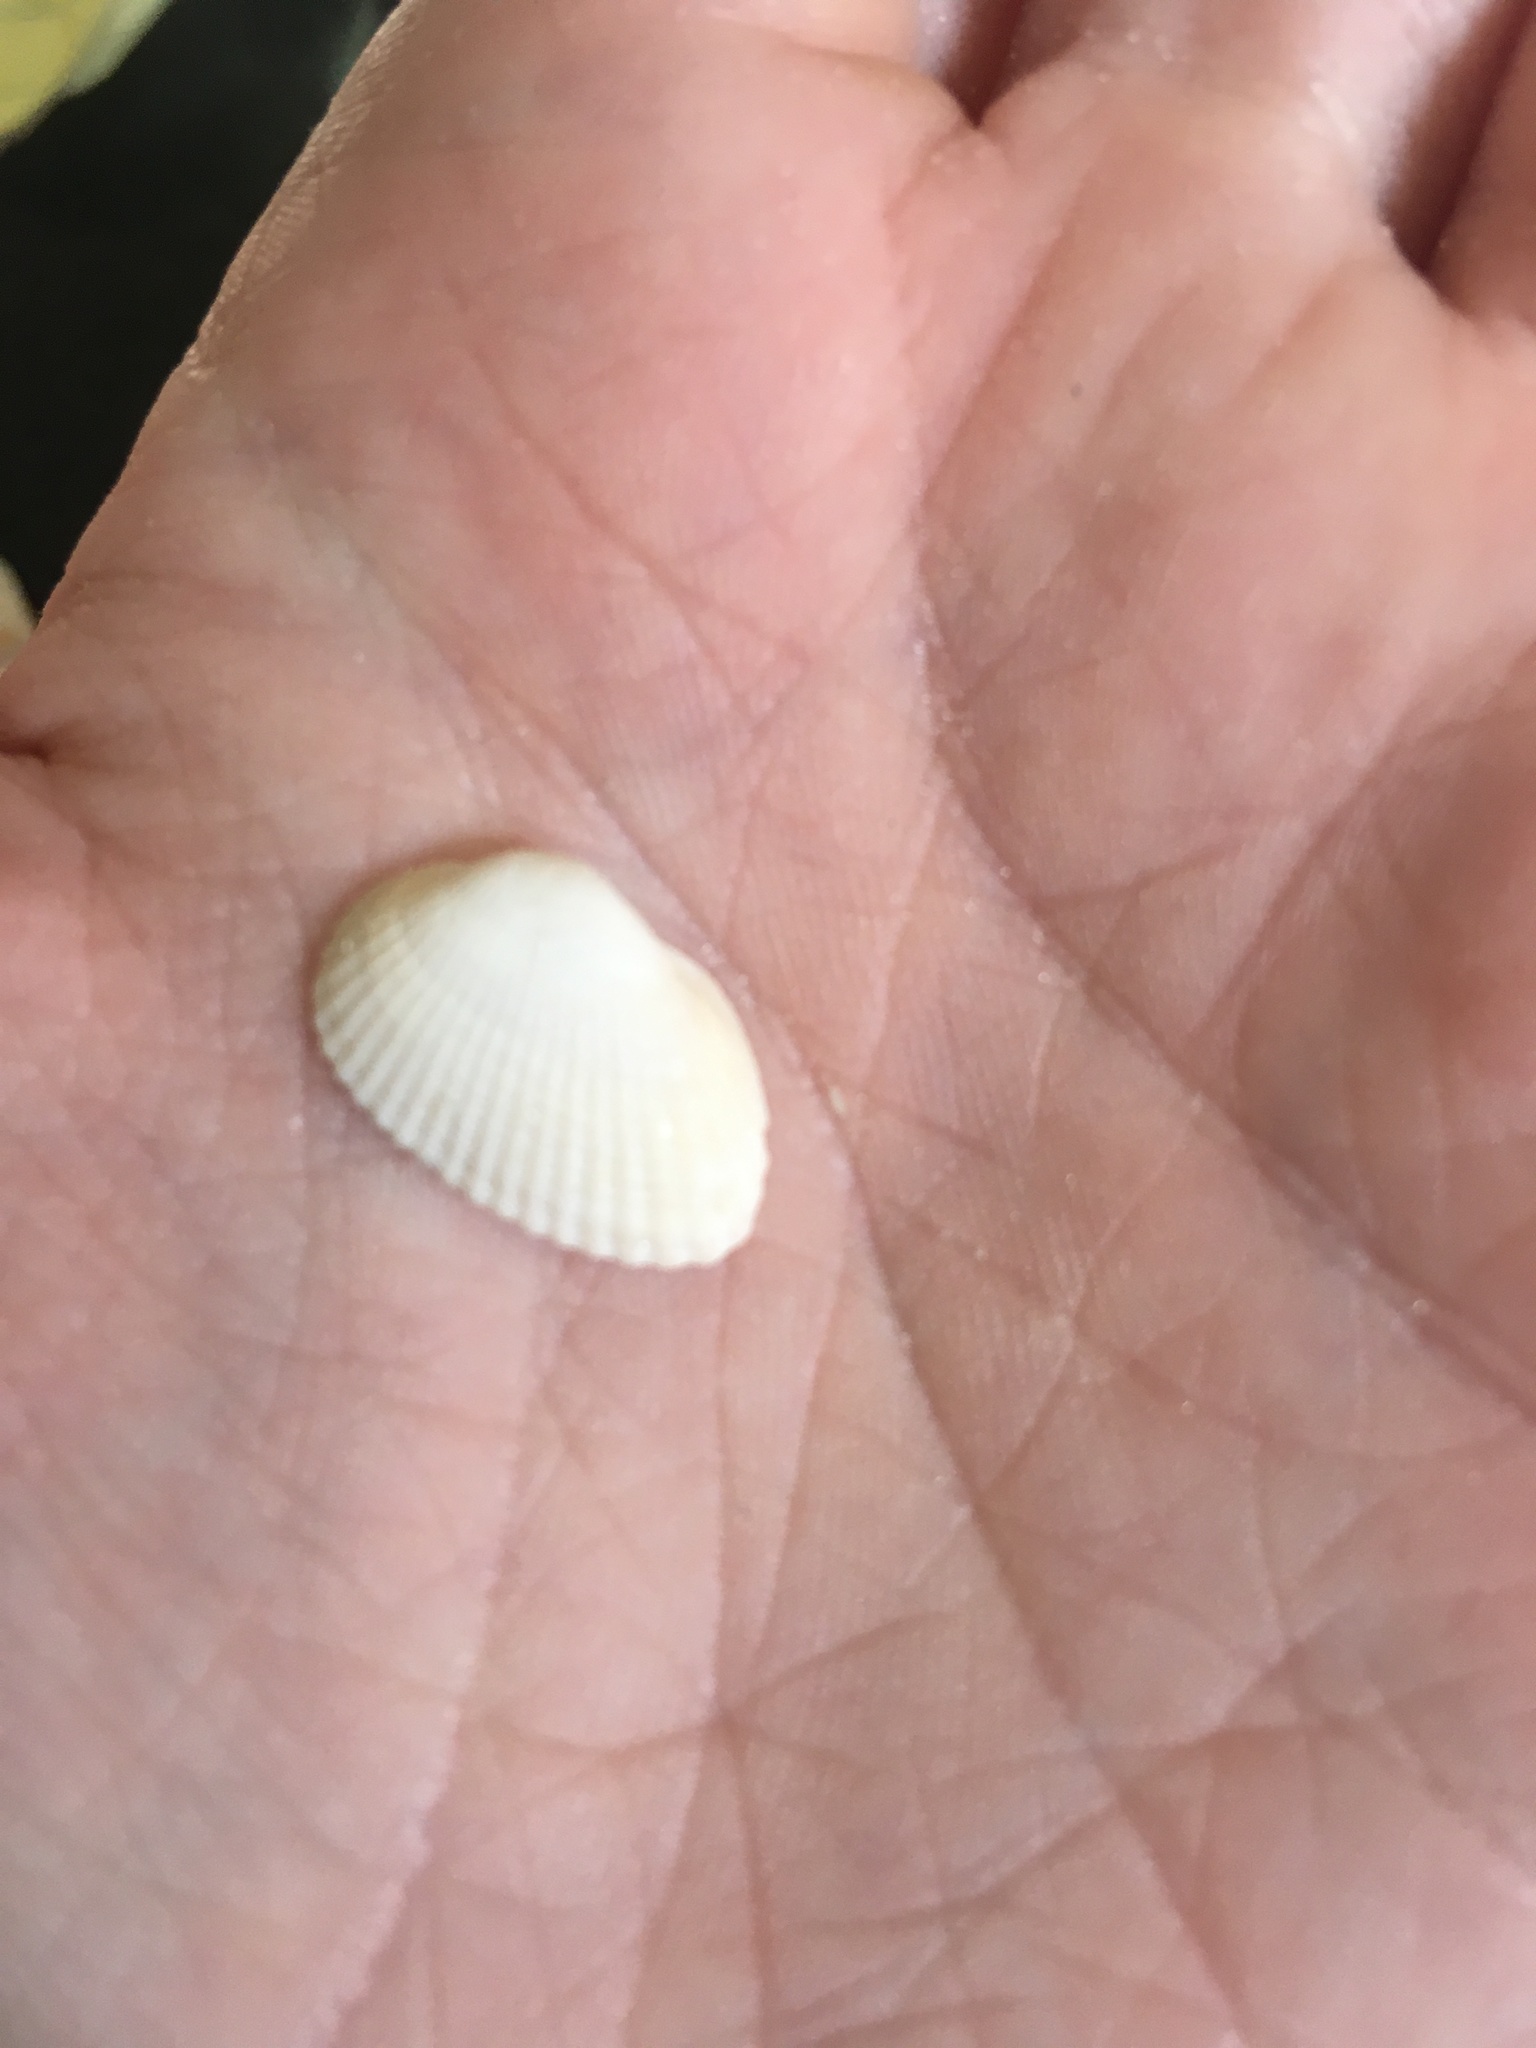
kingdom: Animalia
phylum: Mollusca
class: Bivalvia
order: Arcida
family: Arcidae
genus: Anadara
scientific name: Anadara transversa
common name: Transverse ark
